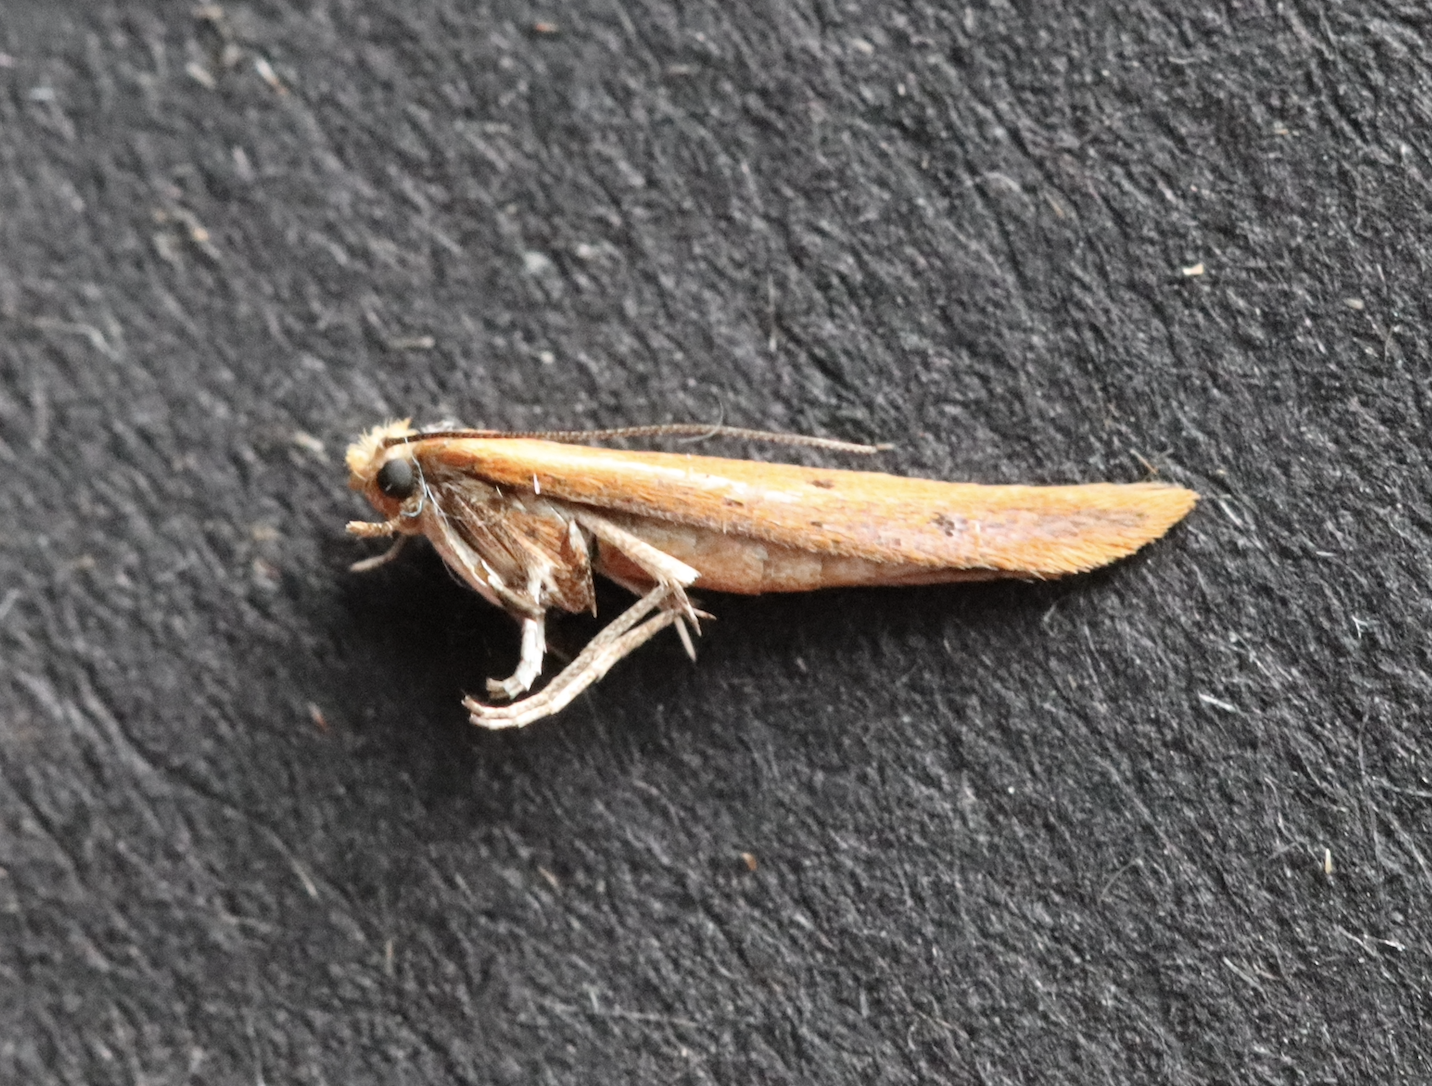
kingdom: Animalia
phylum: Arthropoda
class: Insecta
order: Lepidoptera
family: Yponomeutidae
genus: Zelleria
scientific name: Zelleria hepariella
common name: Brown ash ermine
